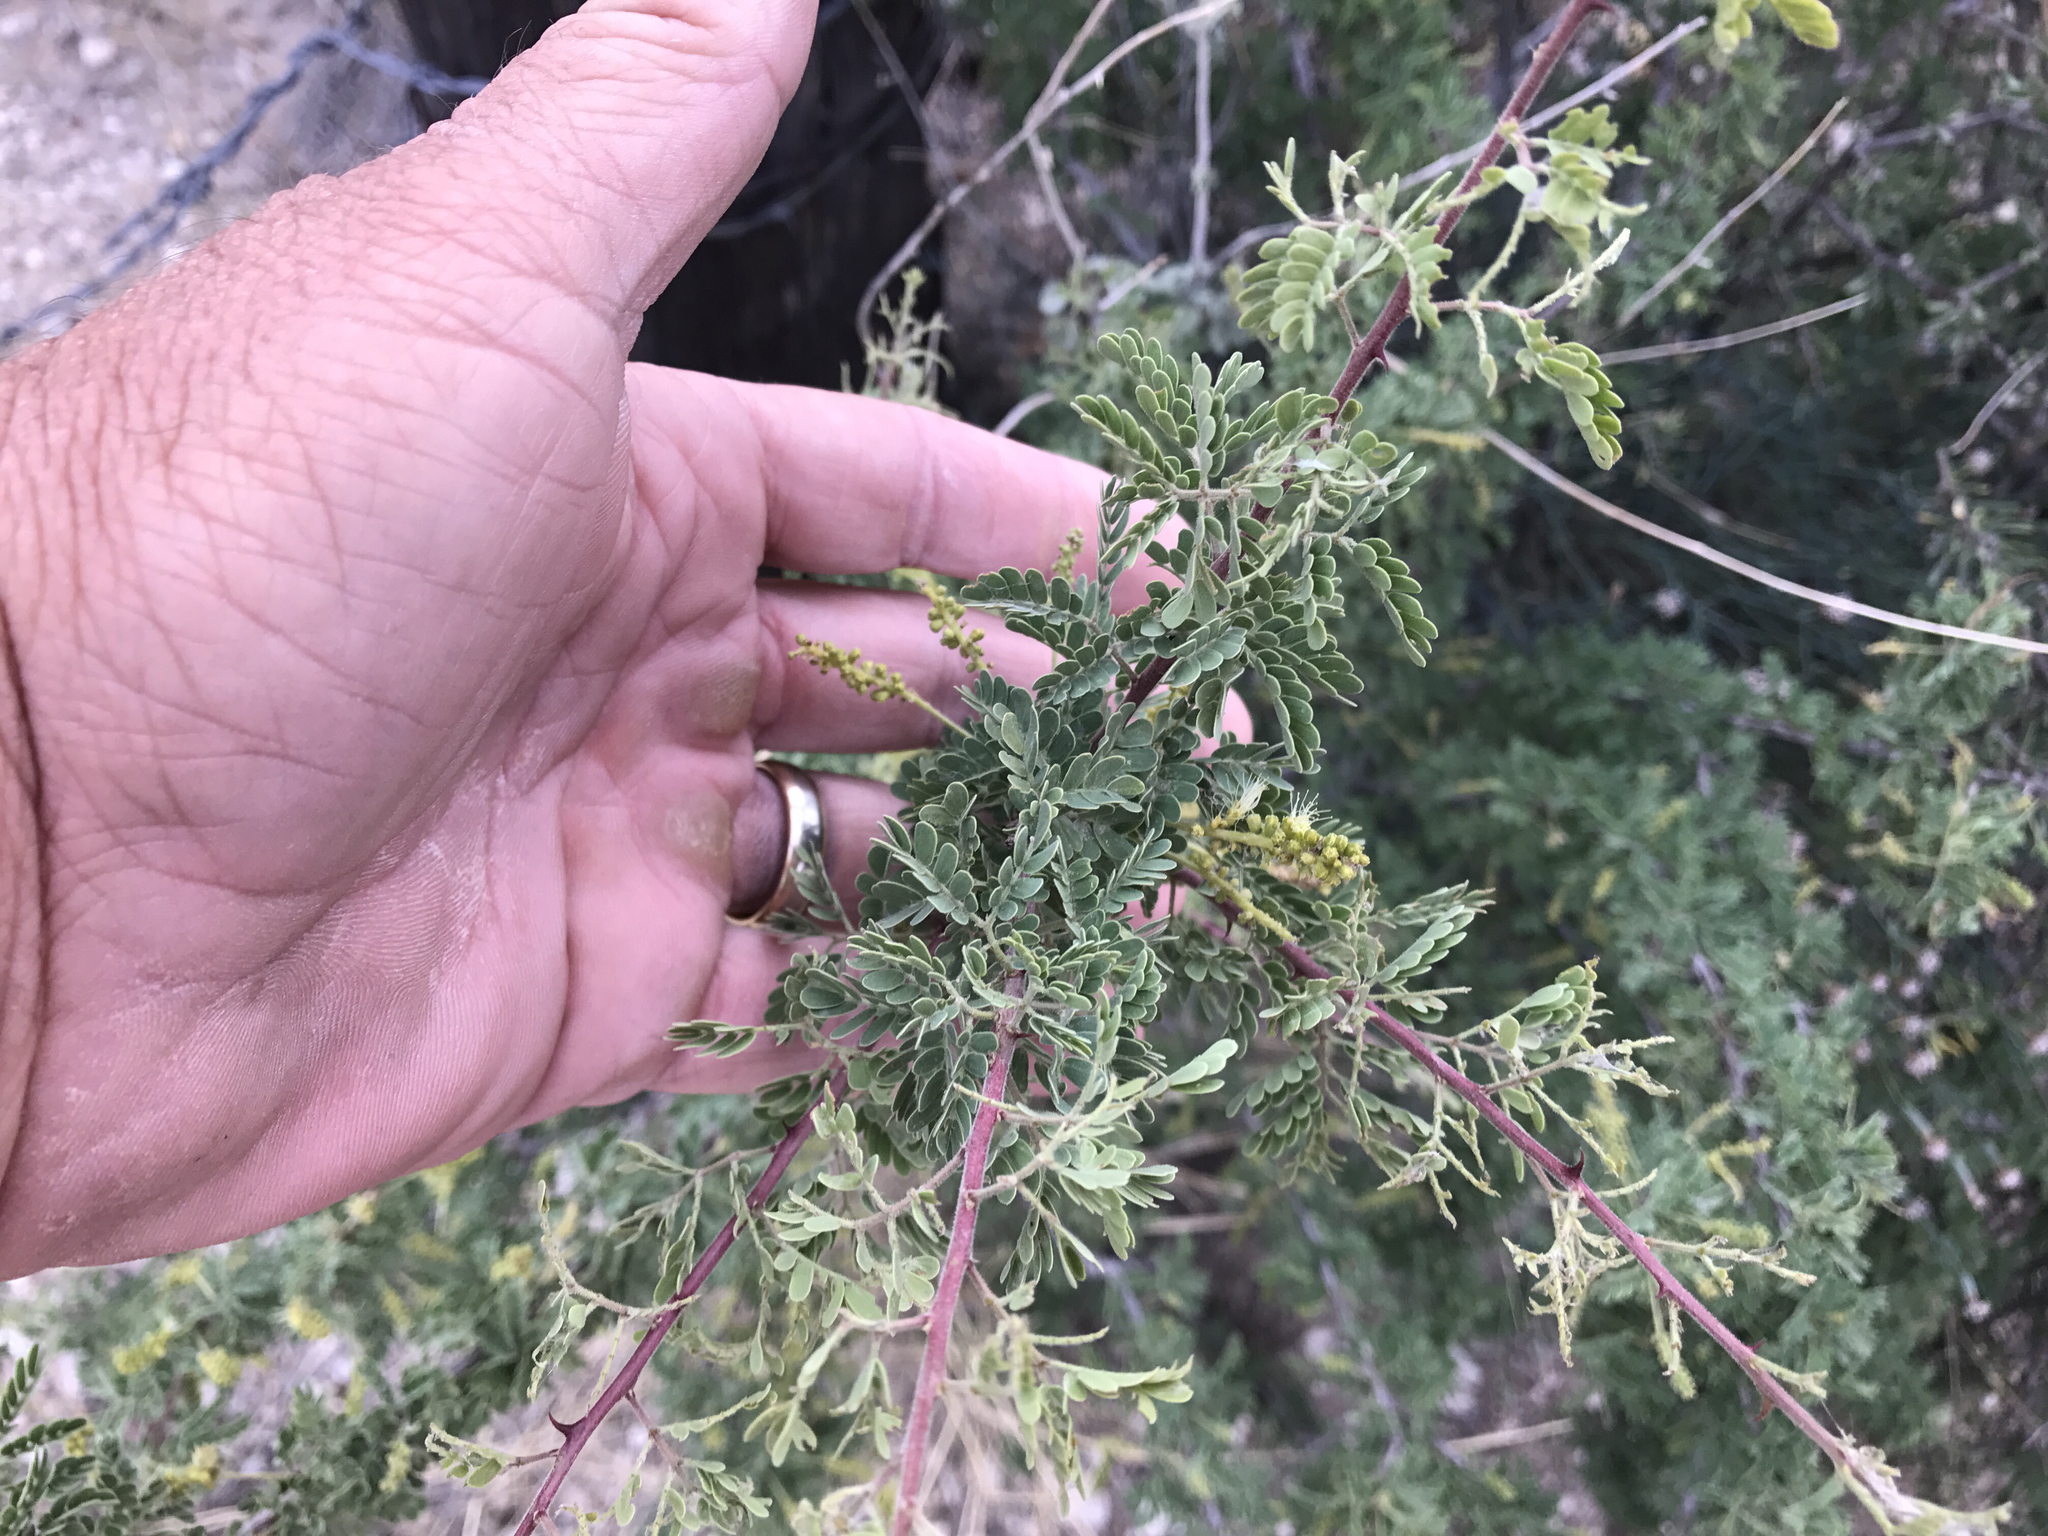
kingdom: Plantae
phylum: Tracheophyta
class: Magnoliopsida
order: Fabales
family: Fabaceae
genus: Senegalia
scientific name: Senegalia greggii
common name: Texas-mimosa
